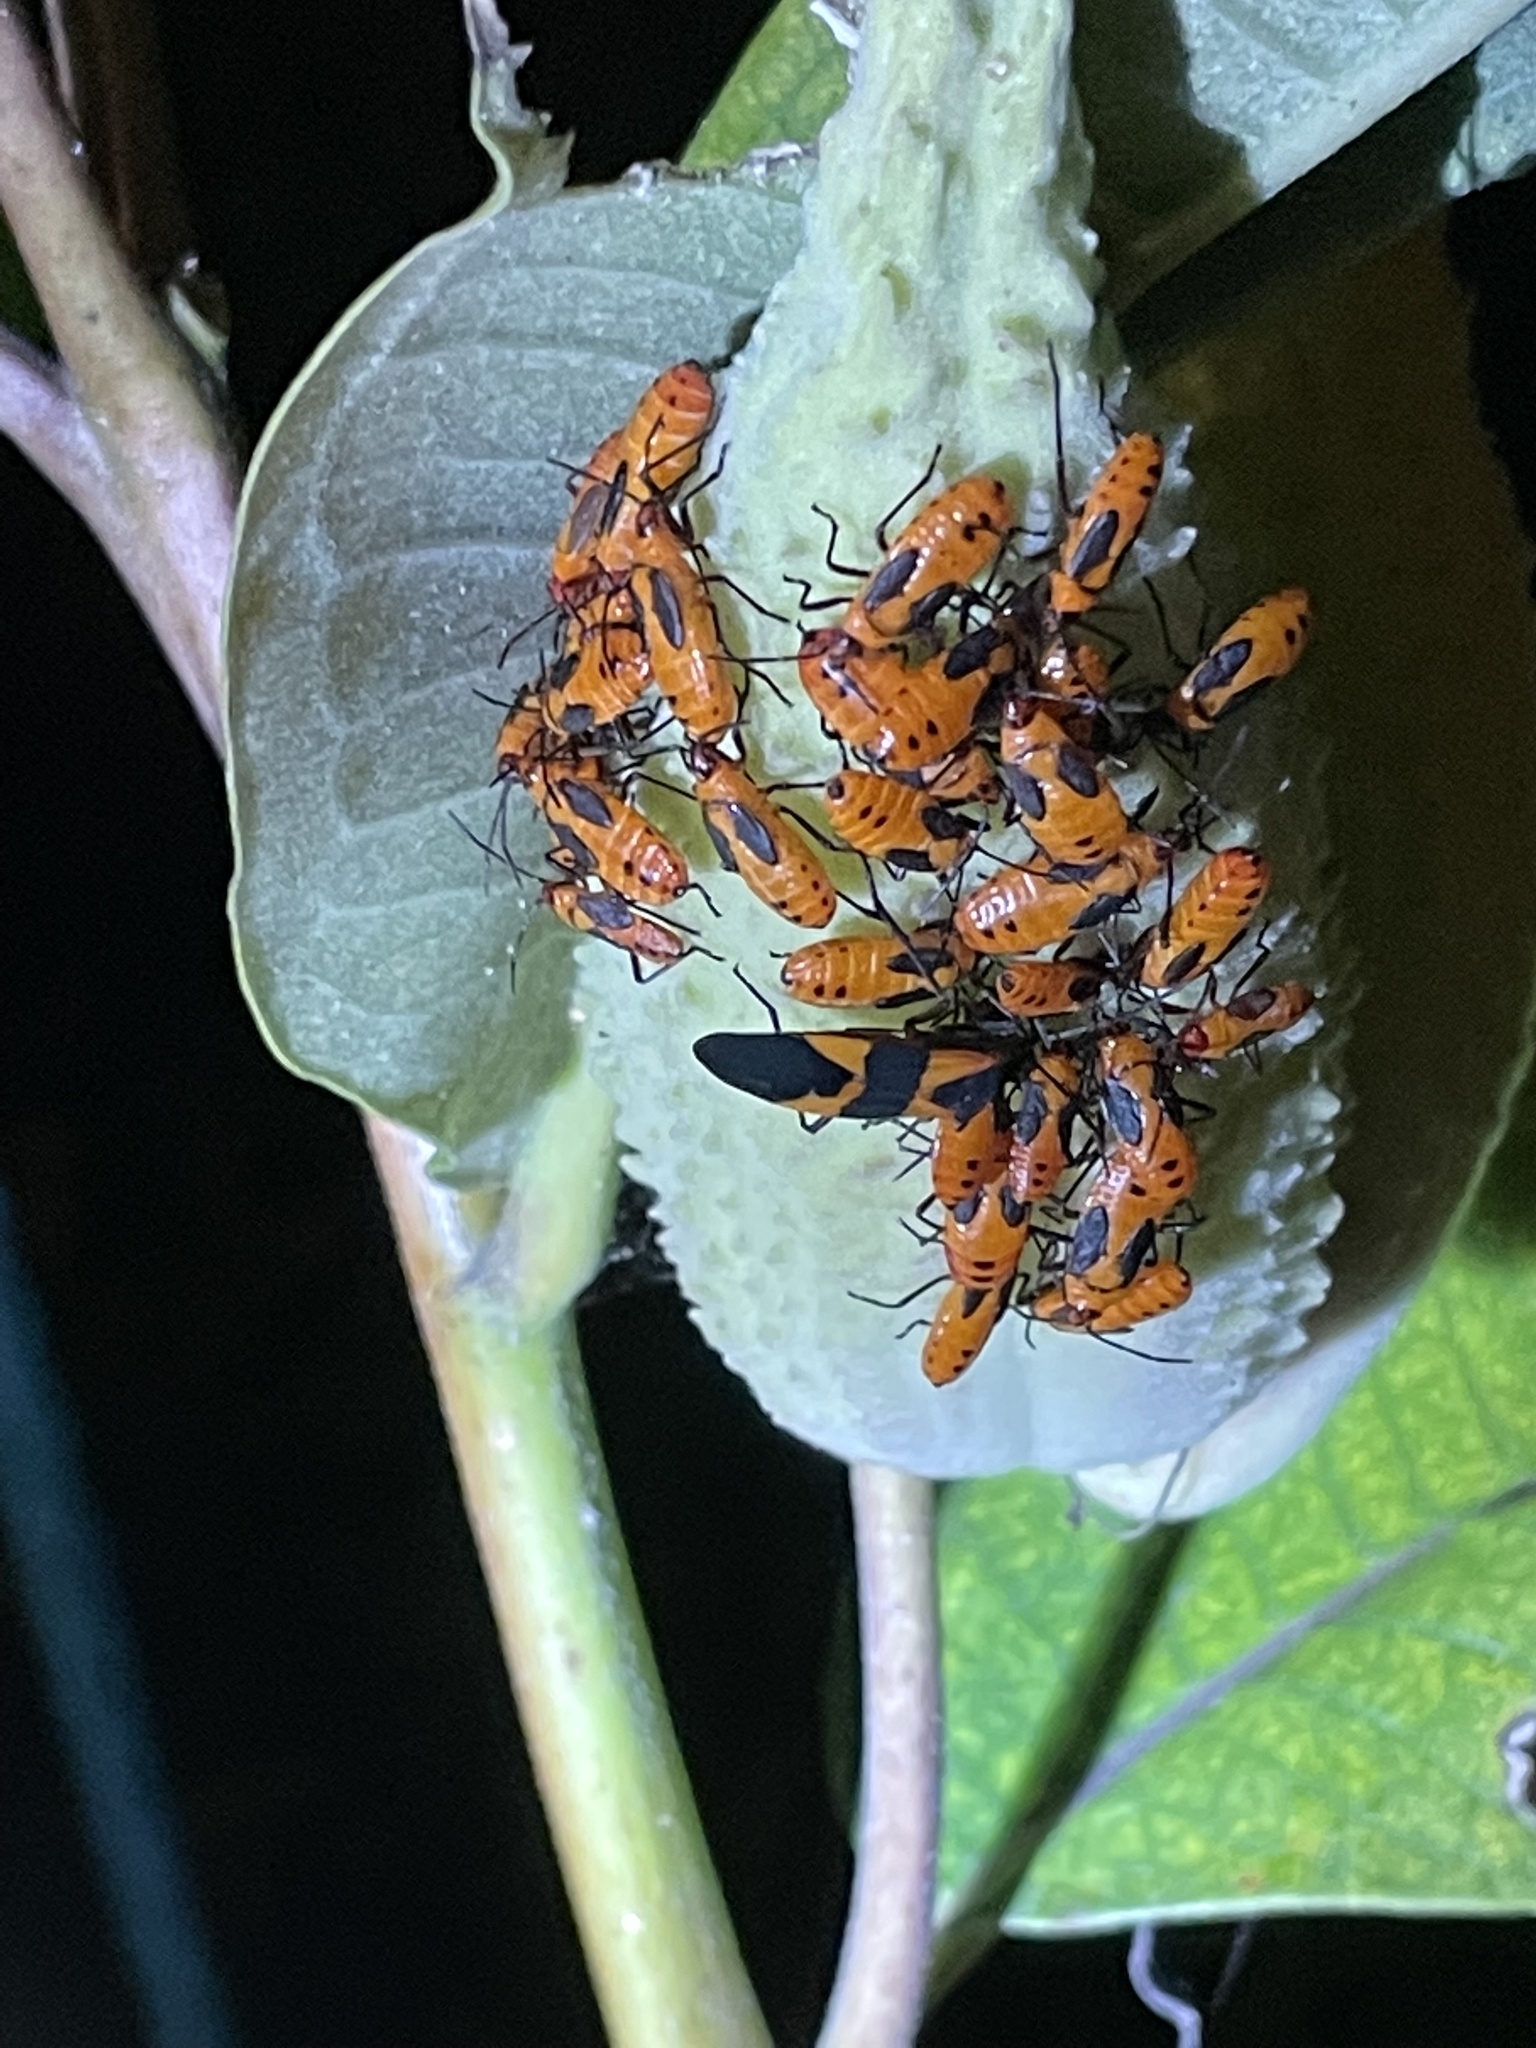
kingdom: Animalia
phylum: Arthropoda
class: Insecta
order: Hemiptera
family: Lygaeidae
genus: Oncopeltus
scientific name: Oncopeltus fasciatus
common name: Large milkweed bug
